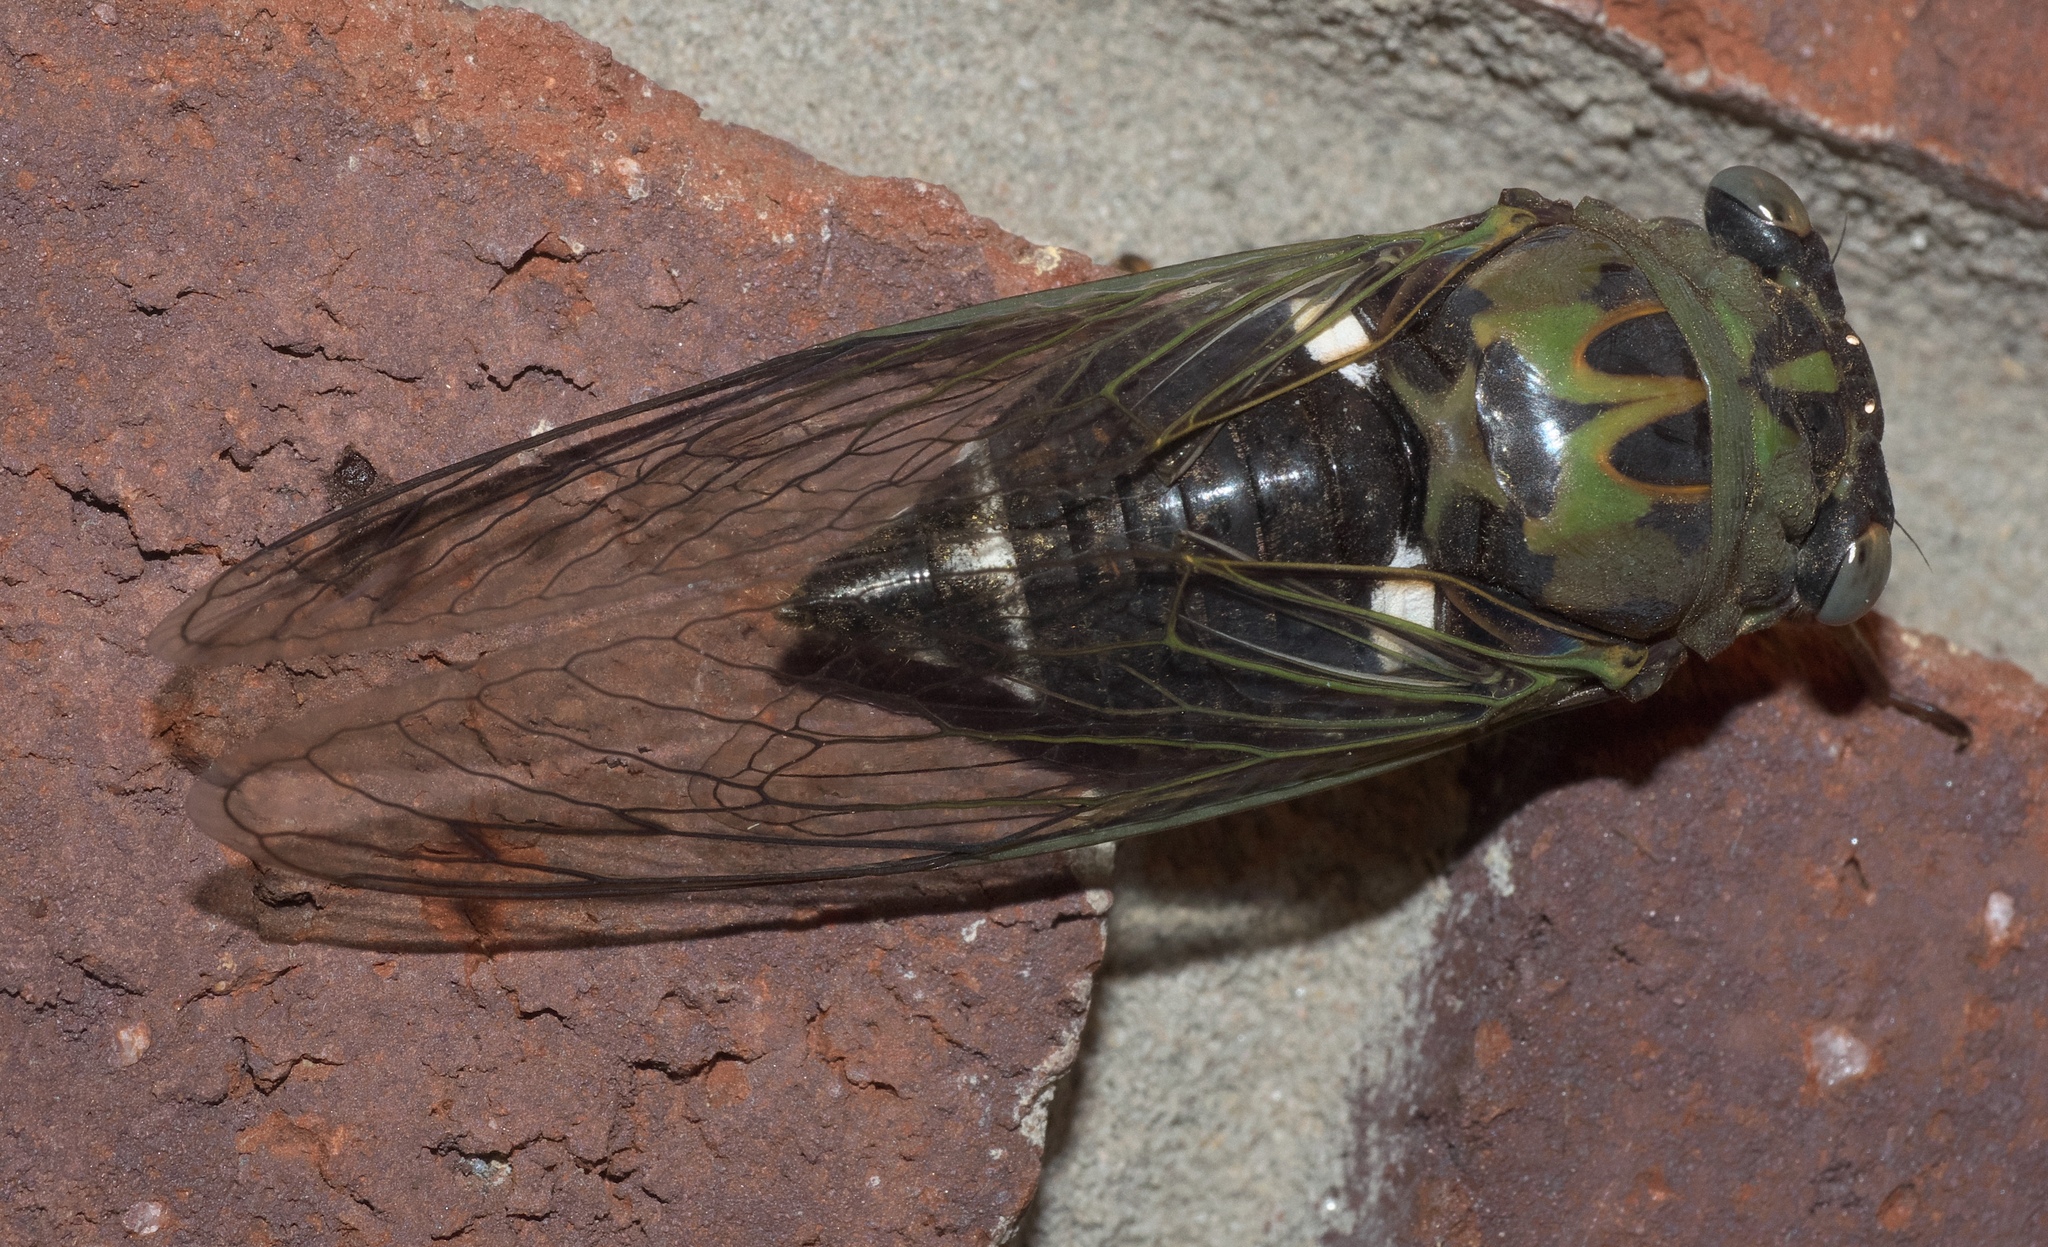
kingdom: Animalia
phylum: Arthropoda
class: Insecta
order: Hemiptera
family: Cicadidae
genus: Neotibicen
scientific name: Neotibicen pruinosus
